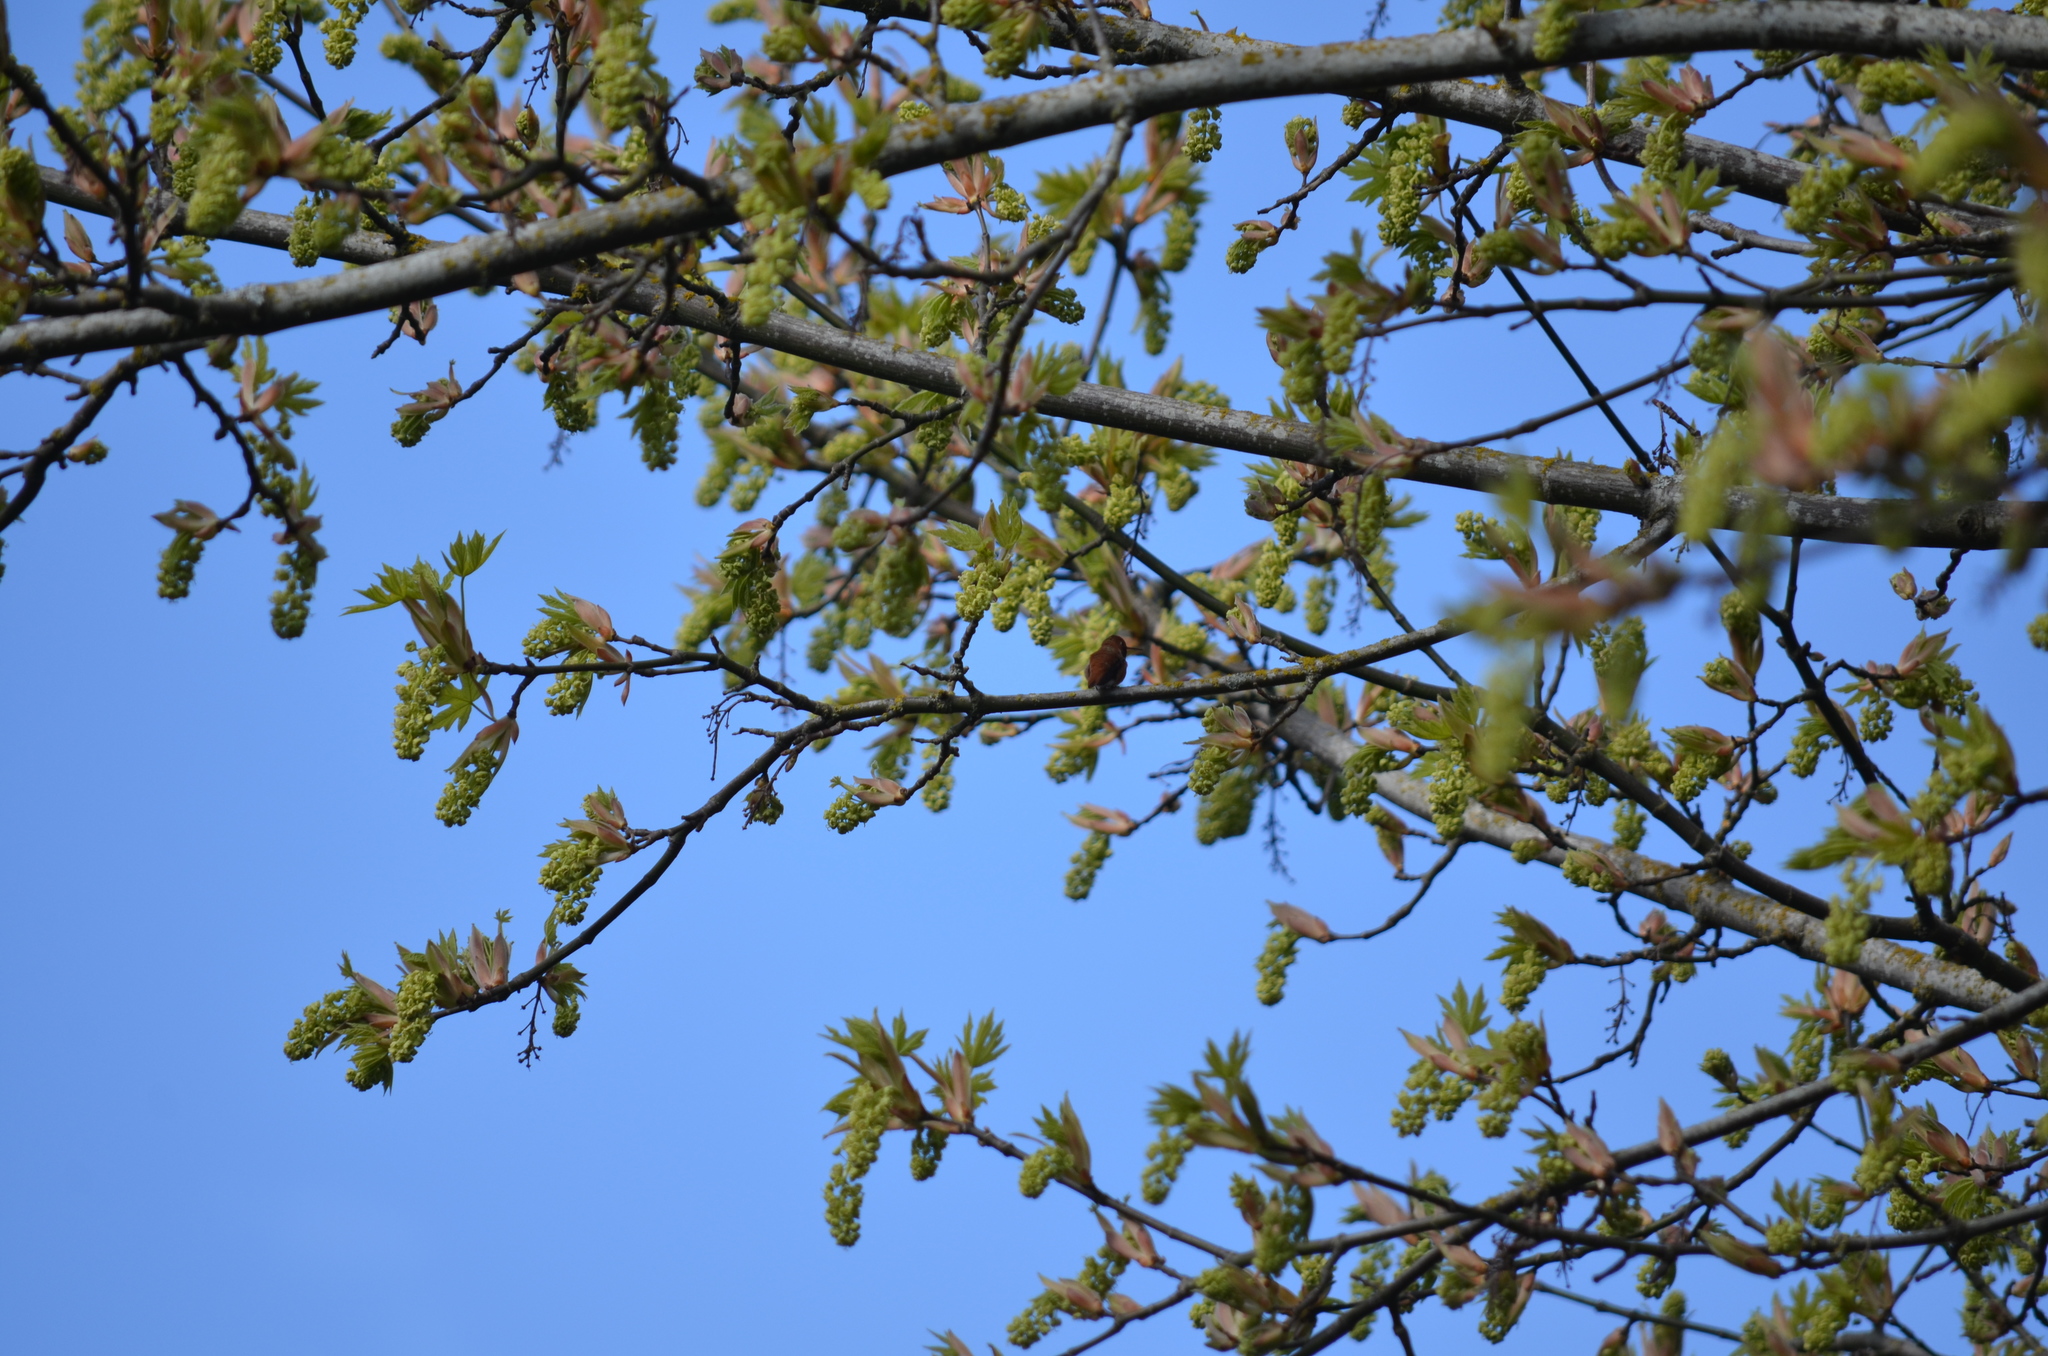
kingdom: Animalia
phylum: Chordata
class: Aves
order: Apodiformes
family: Trochilidae
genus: Selasphorus
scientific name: Selasphorus rufus
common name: Rufous hummingbird
